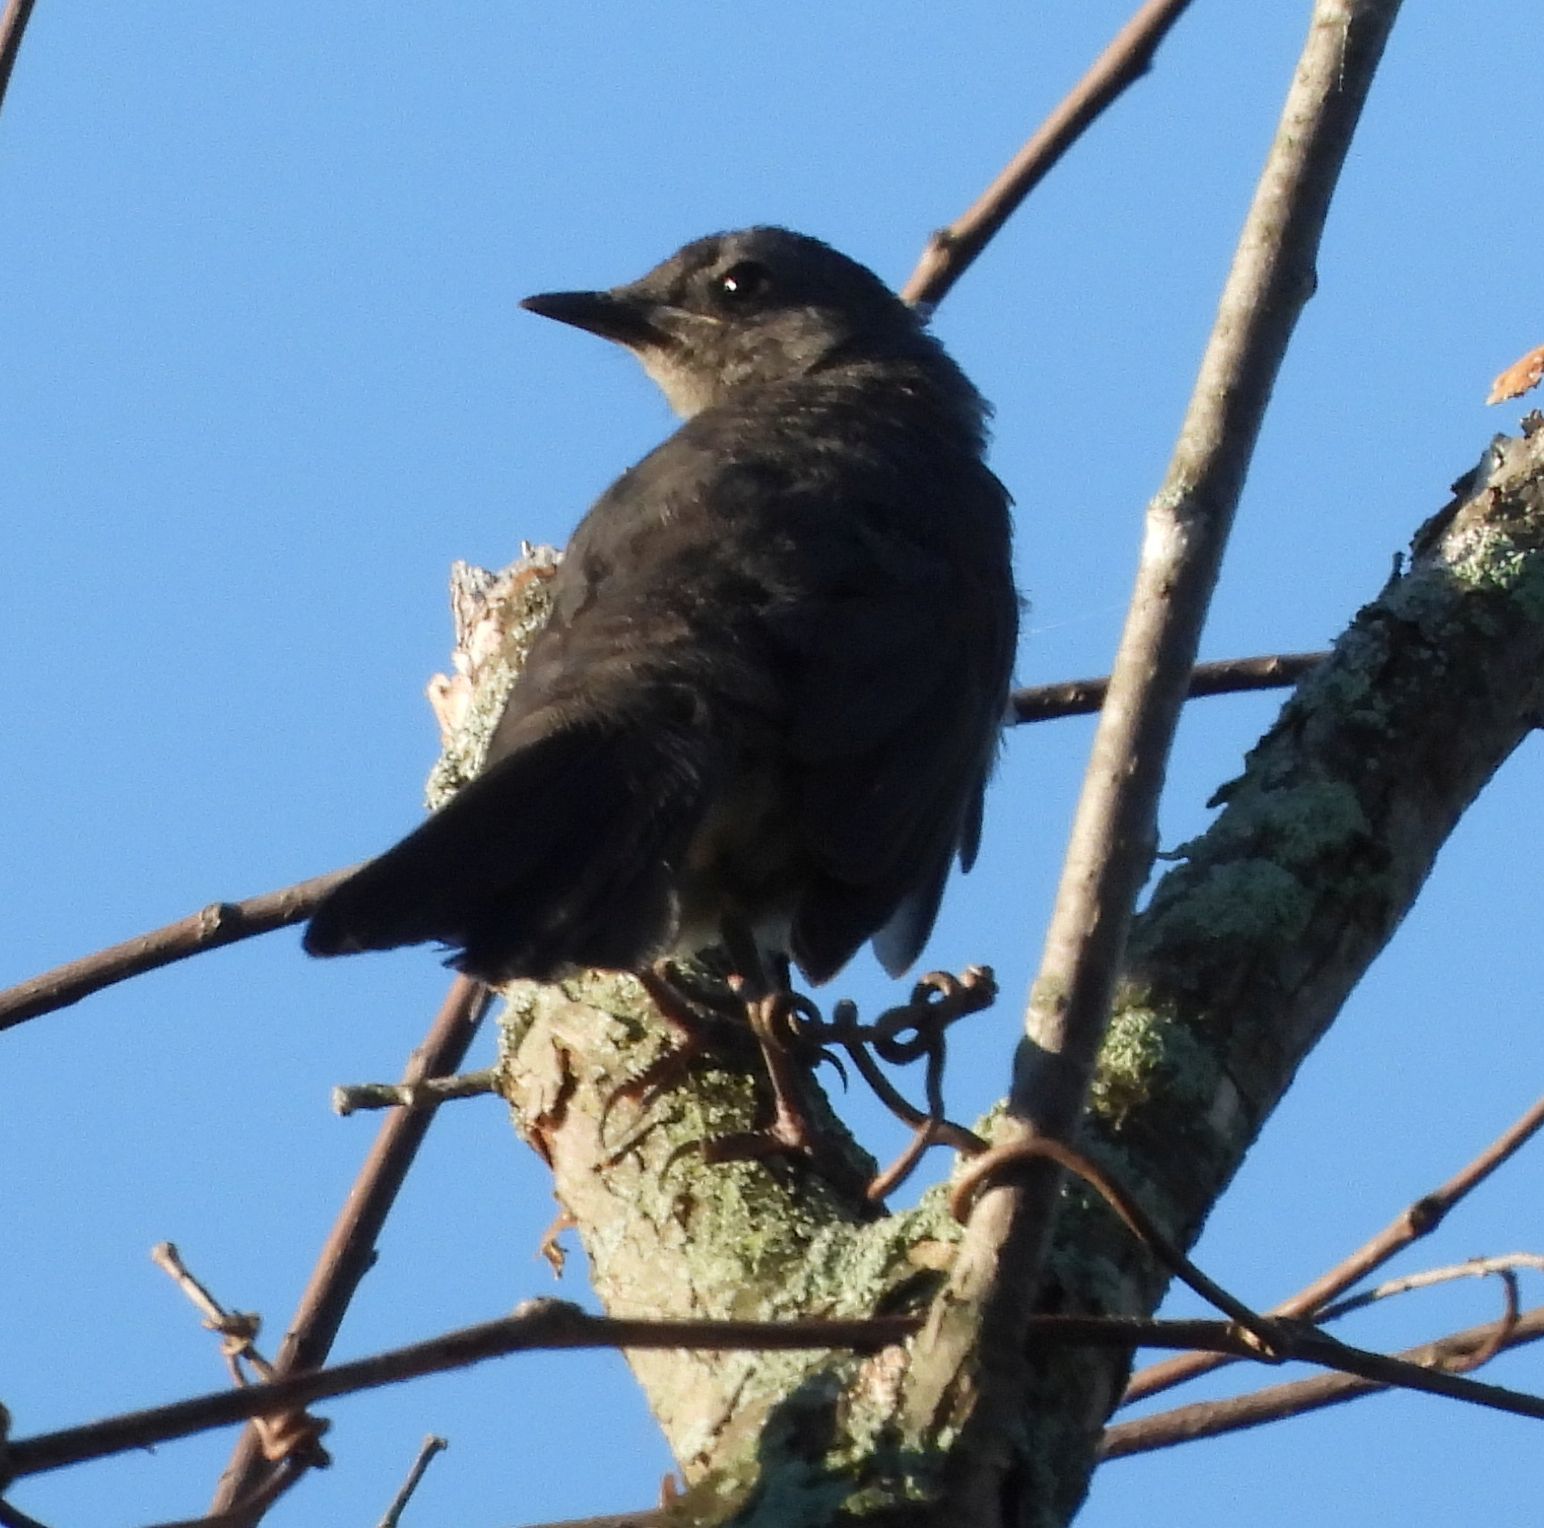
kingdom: Animalia
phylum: Chordata
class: Aves
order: Passeriformes
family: Mimidae
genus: Dumetella
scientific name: Dumetella carolinensis
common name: Gray catbird
